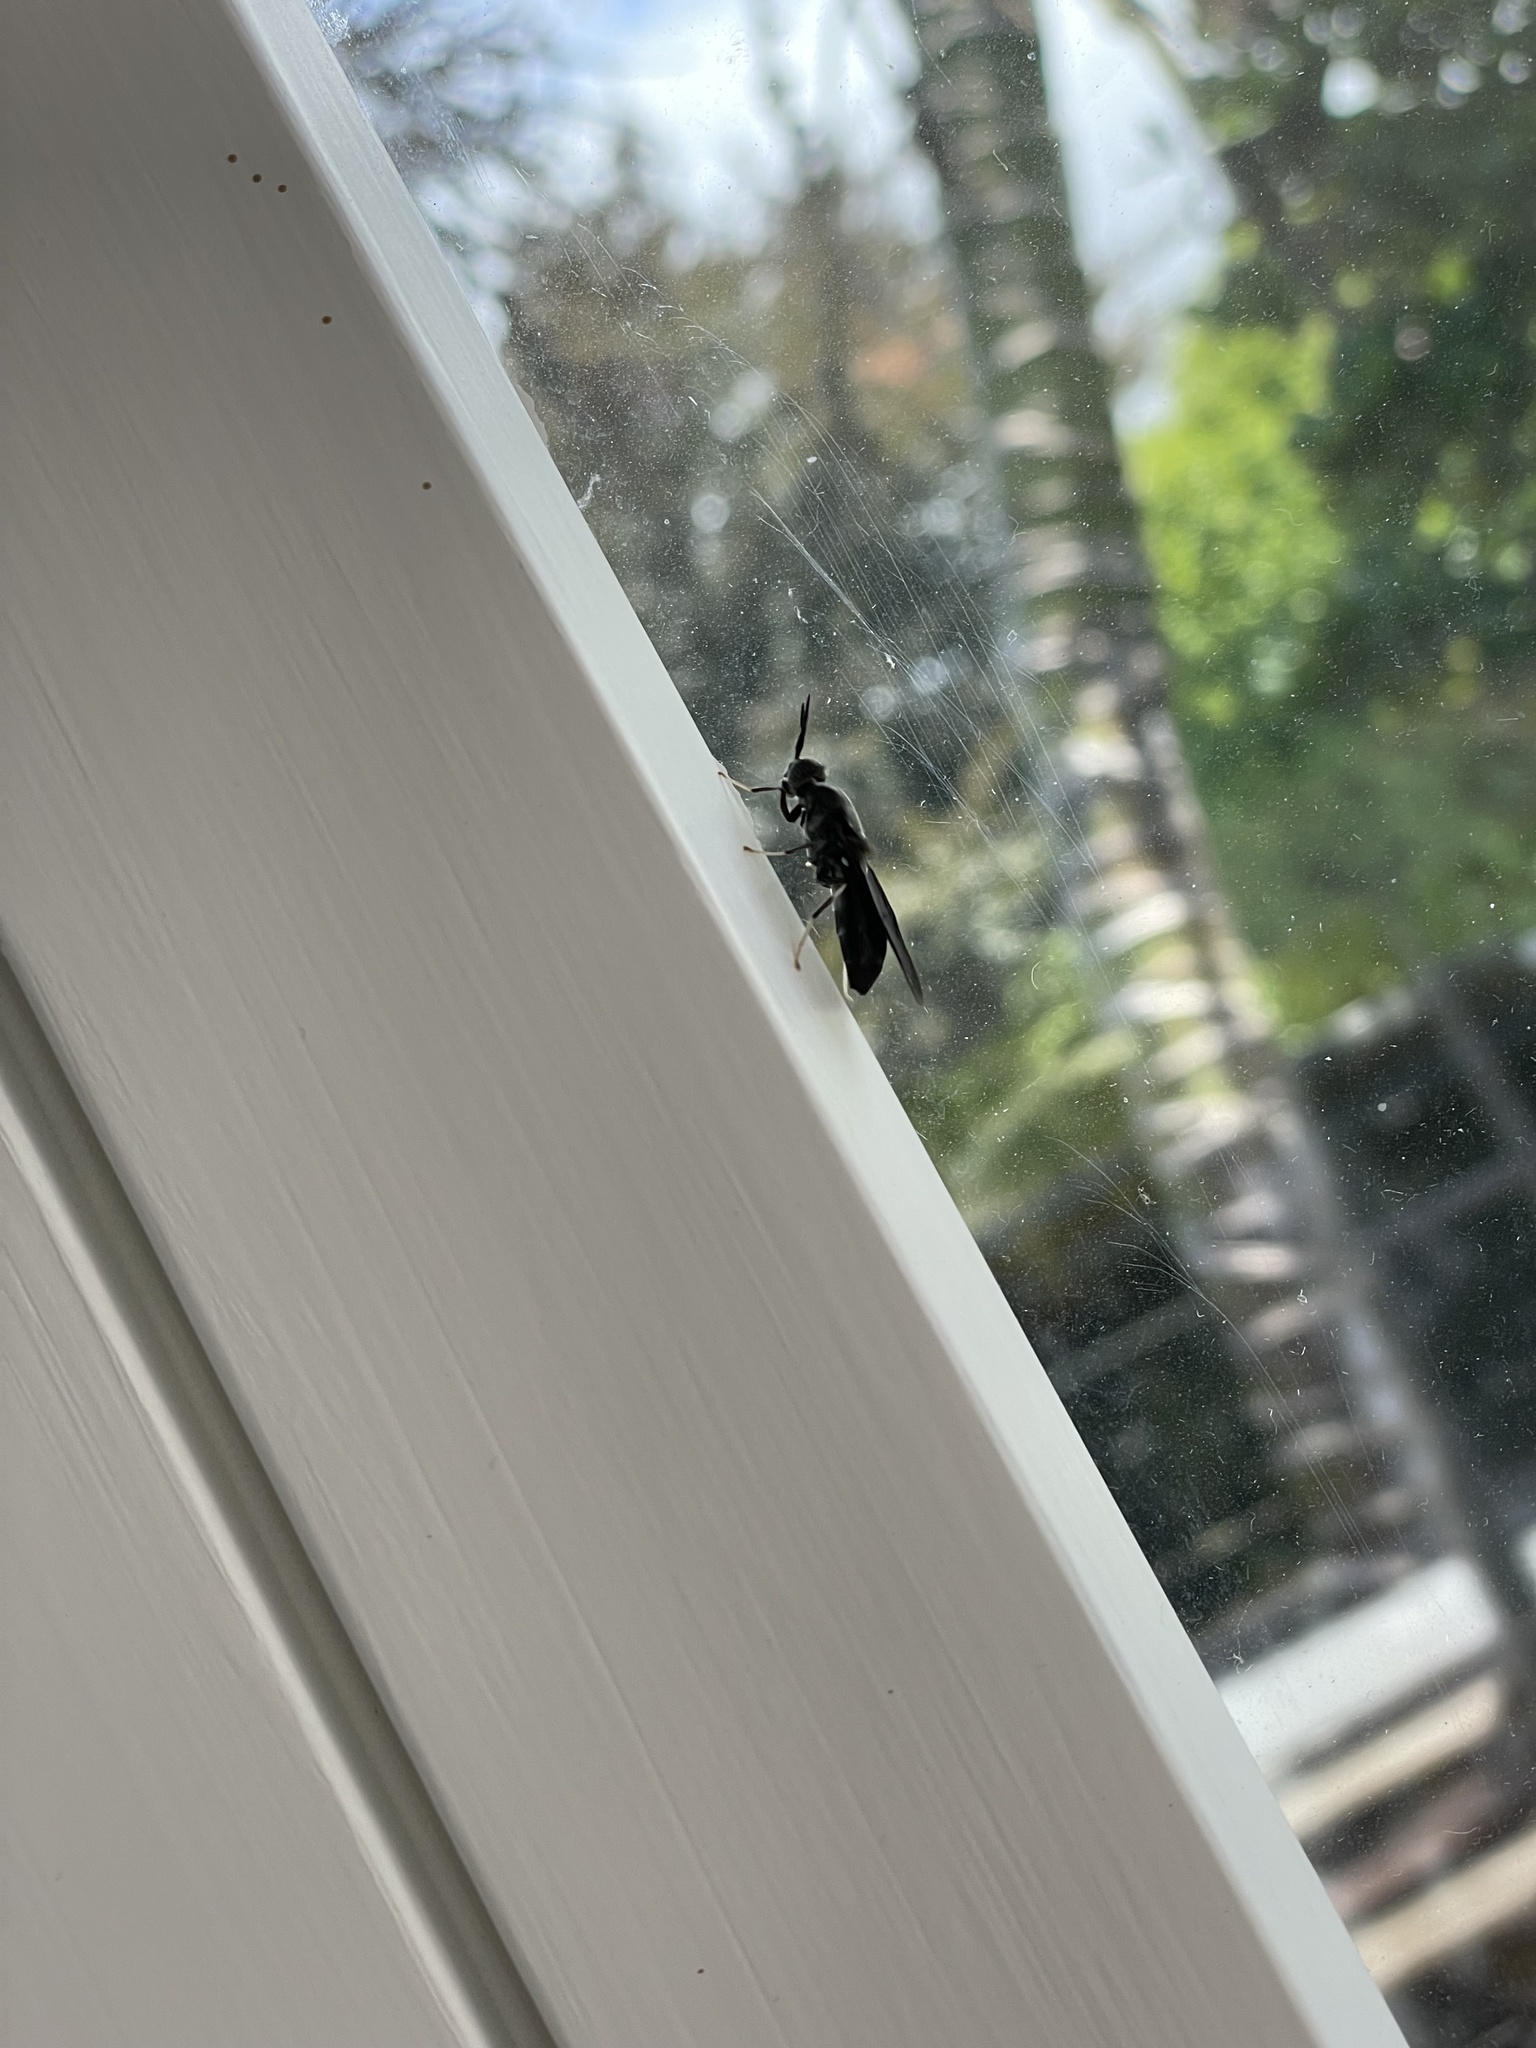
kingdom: Animalia
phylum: Arthropoda
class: Insecta
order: Diptera
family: Stratiomyidae
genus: Hermetia
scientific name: Hermetia illucens
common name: Black soldier fly
